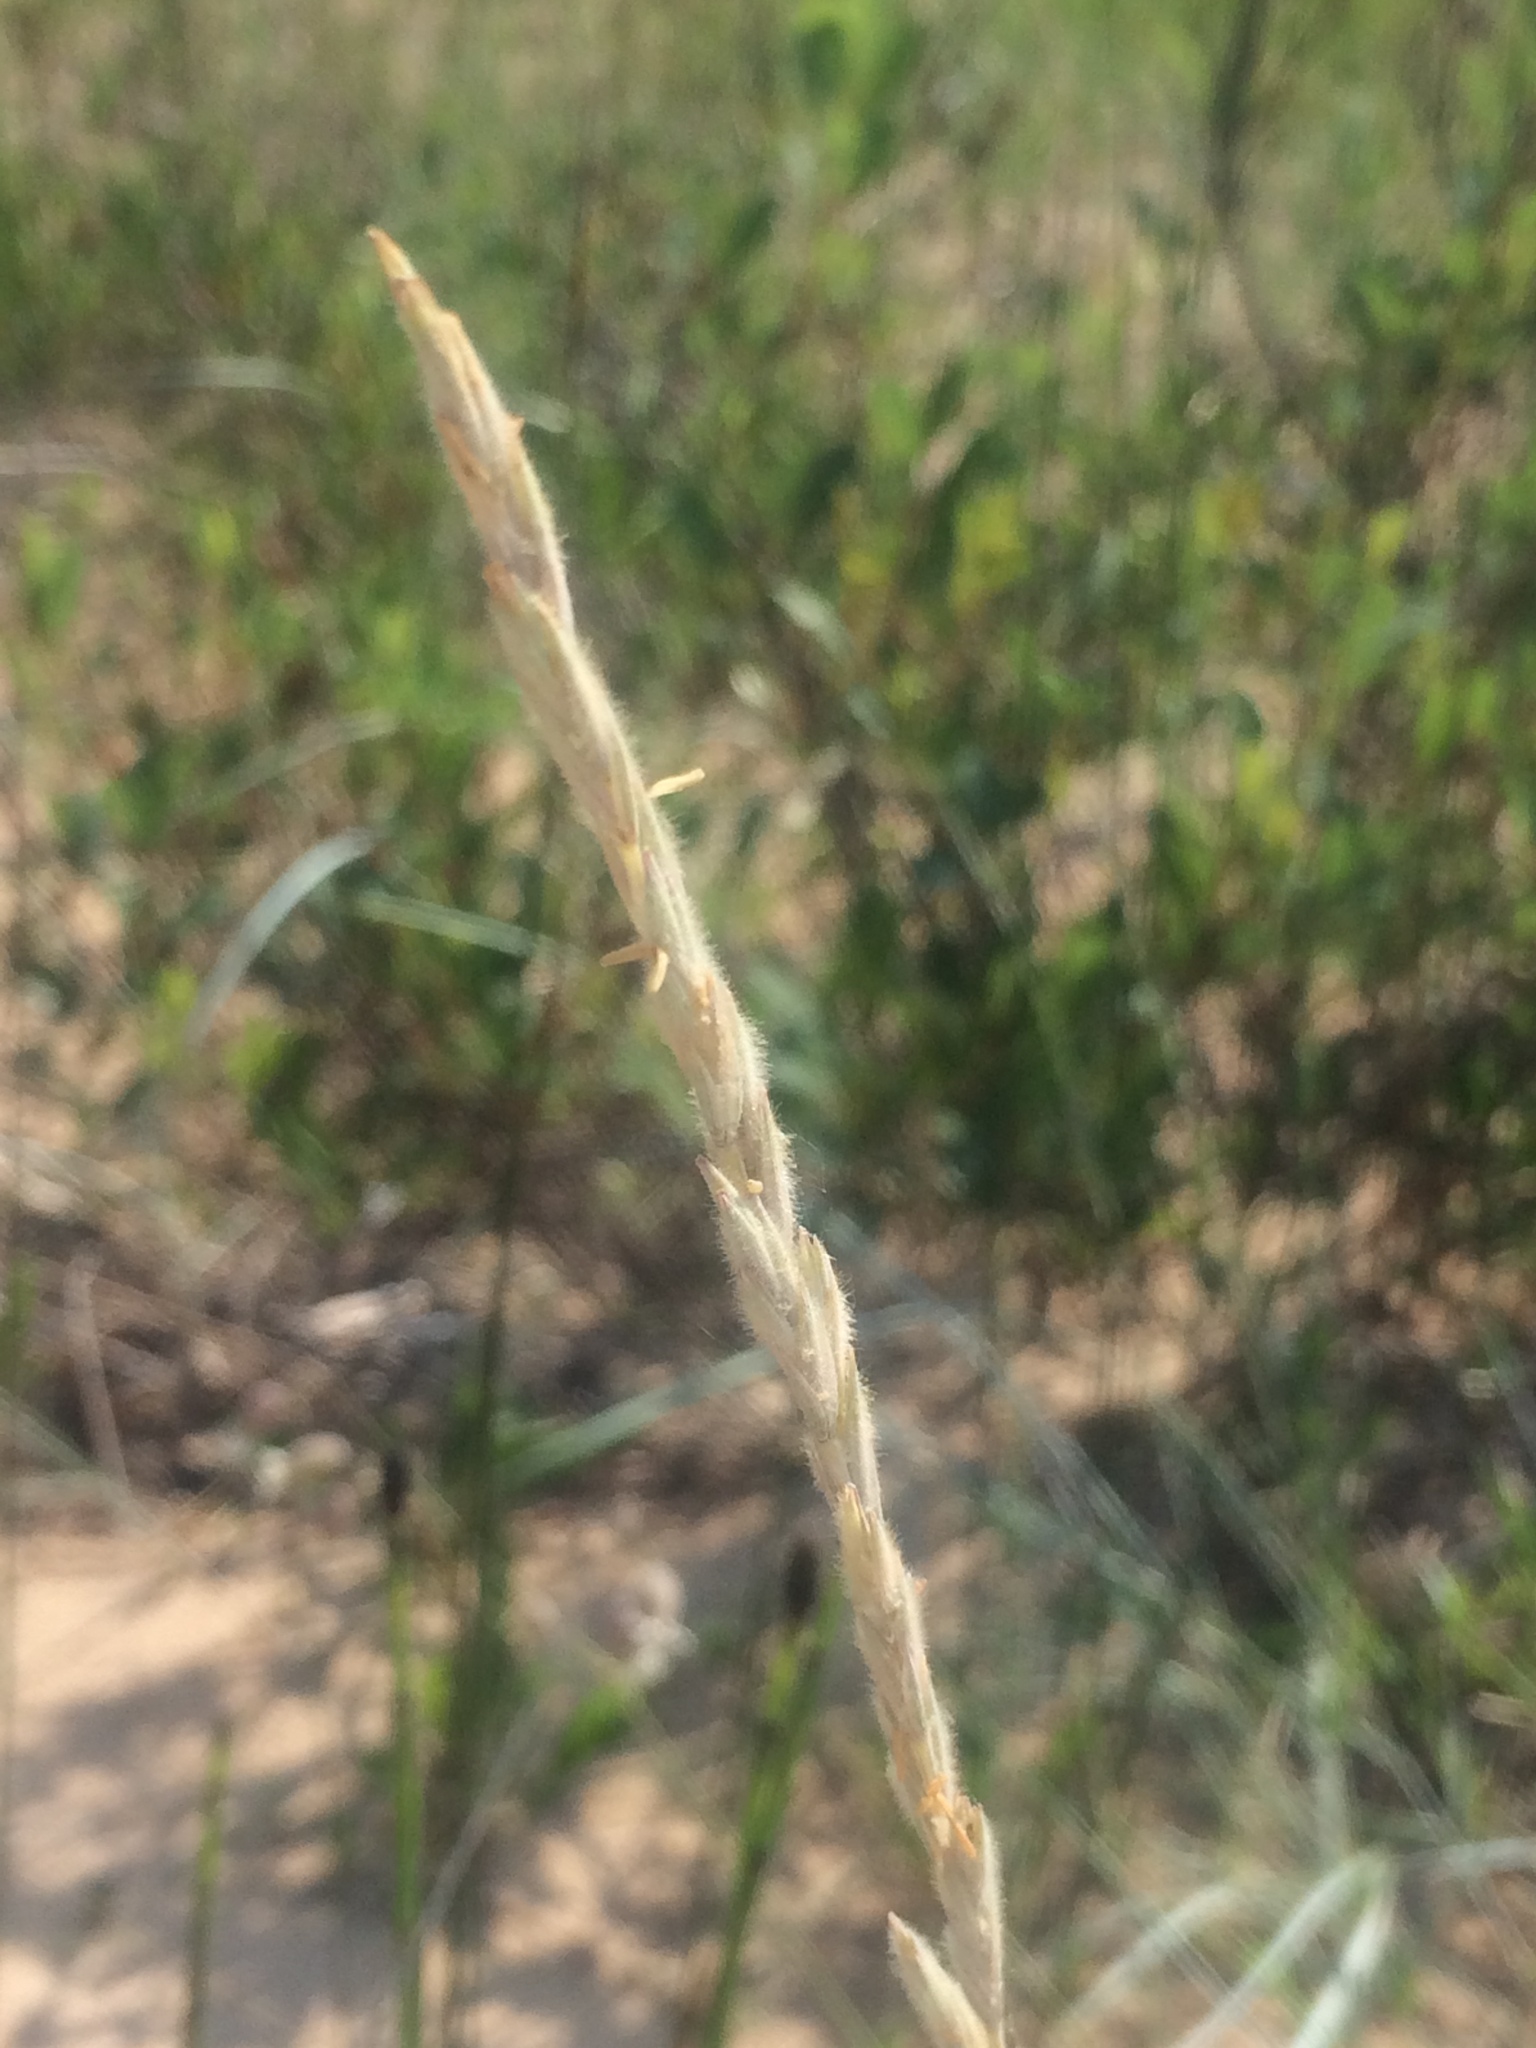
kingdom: Plantae
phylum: Tracheophyta
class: Liliopsida
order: Poales
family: Poaceae
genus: Elymus
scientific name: Elymus lanceolatus
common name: Thick-spike wheatgrass
